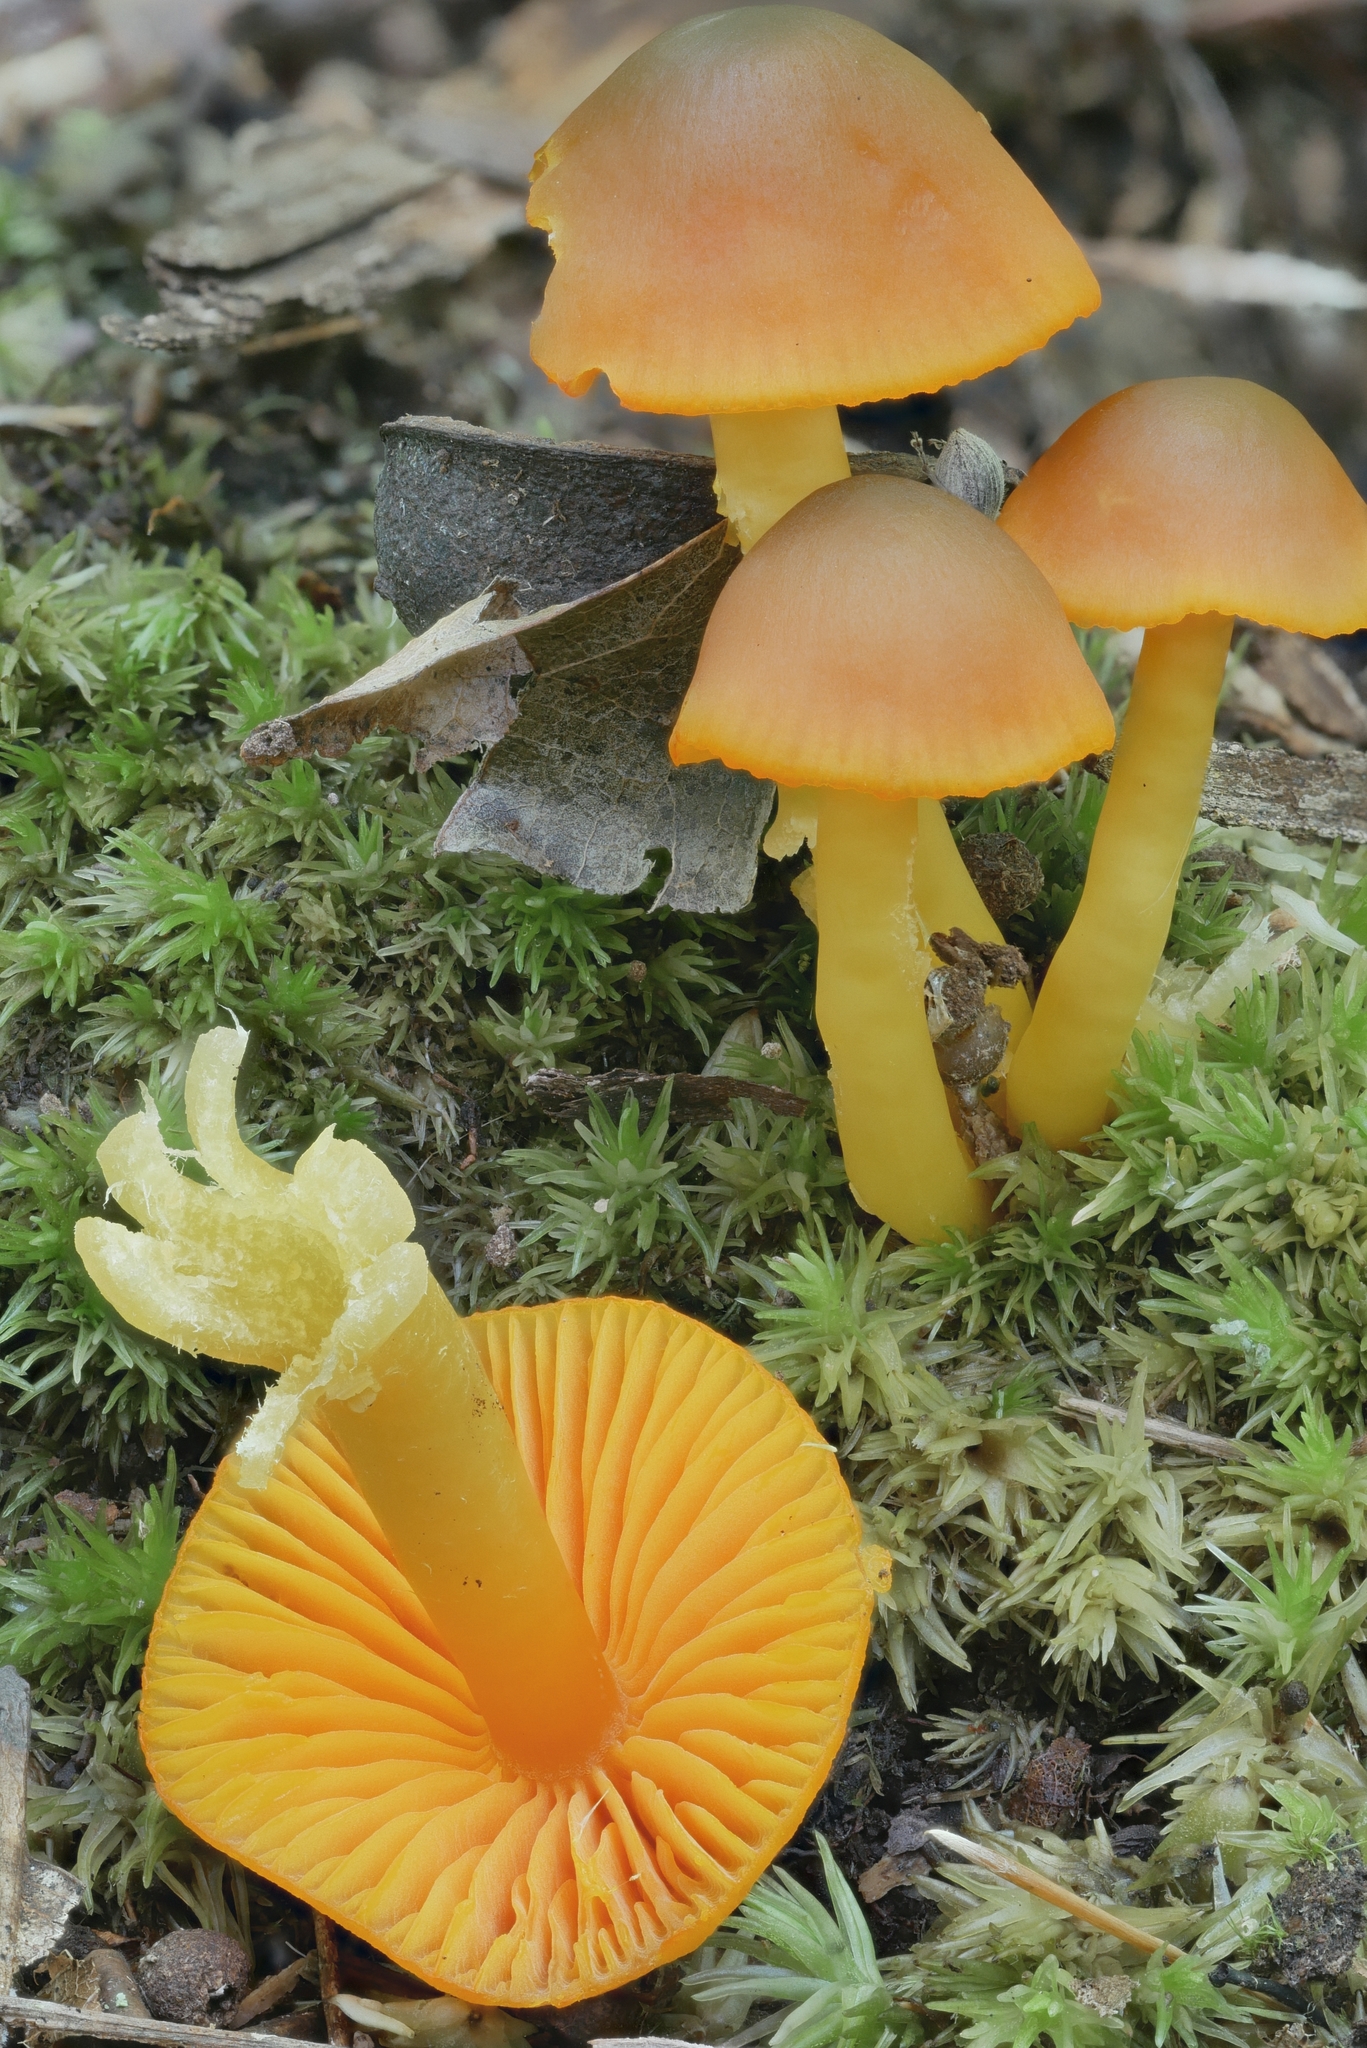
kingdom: Fungi
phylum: Basidiomycota
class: Agaricomycetes
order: Agaricales
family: Hygrophoraceae
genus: Humidicutis
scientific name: Humidicutis marginata
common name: Orange gilled waxcap
